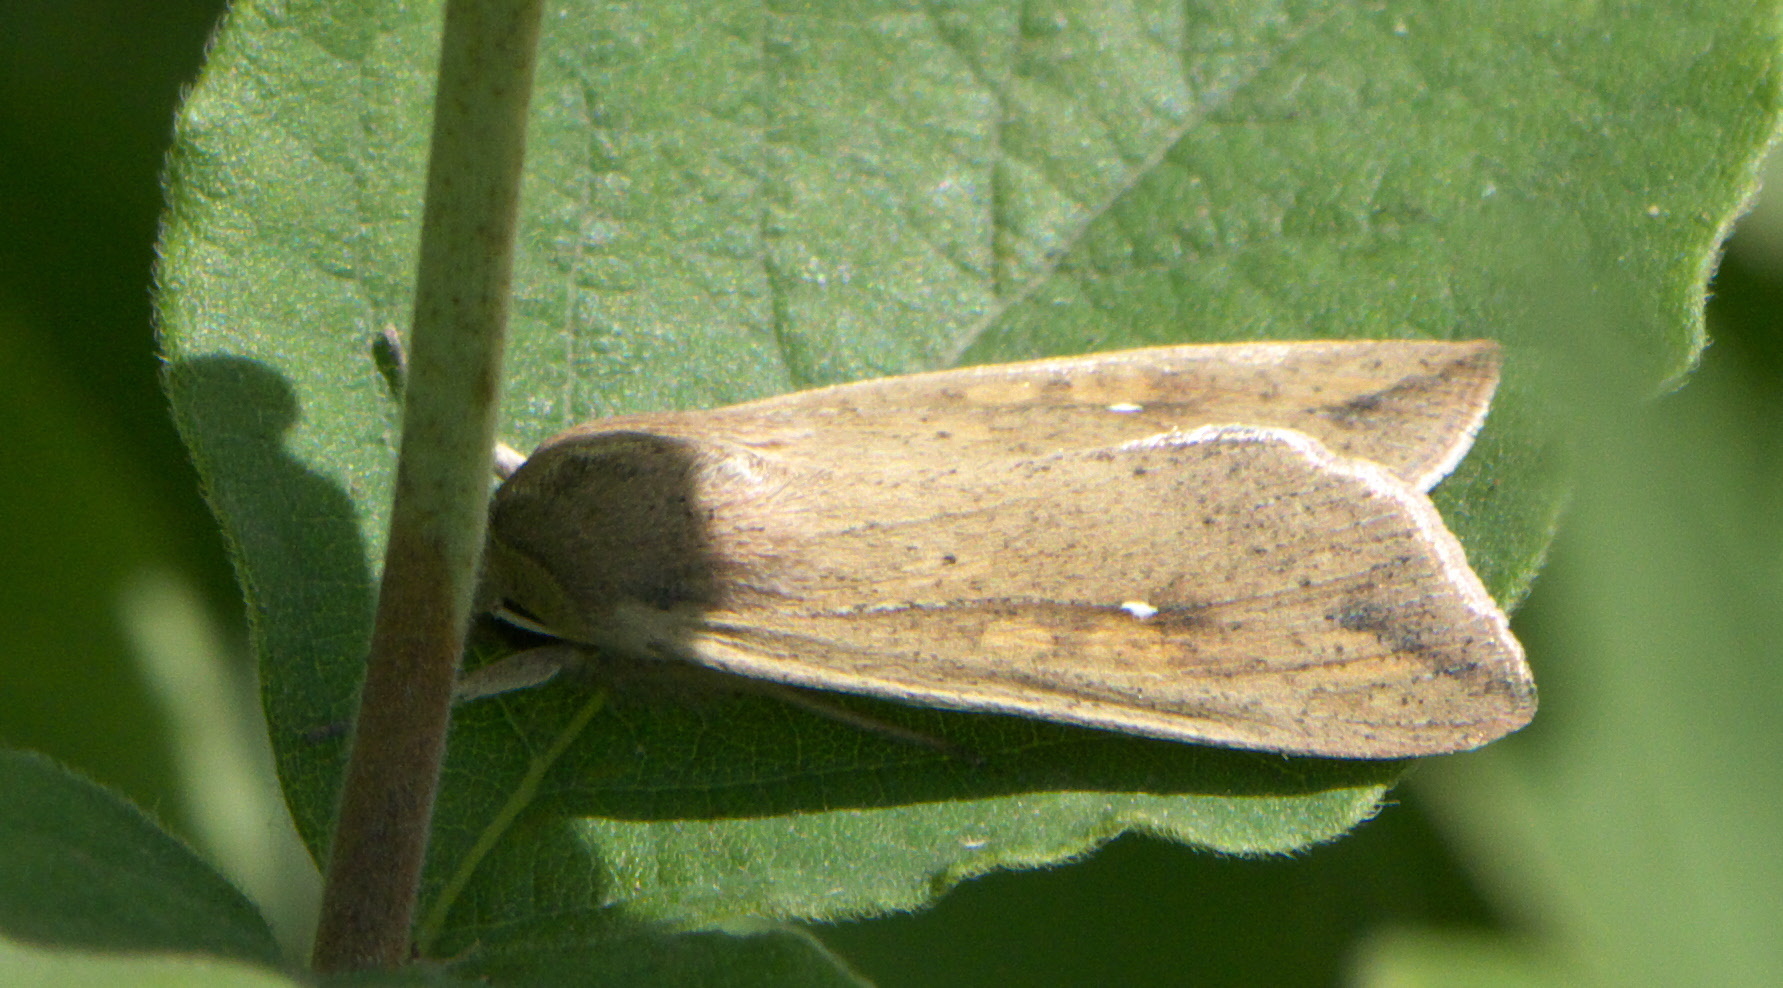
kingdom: Animalia
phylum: Arthropoda
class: Insecta
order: Lepidoptera
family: Noctuidae
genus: Mythimna
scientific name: Mythimna unipuncta
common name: White-speck
